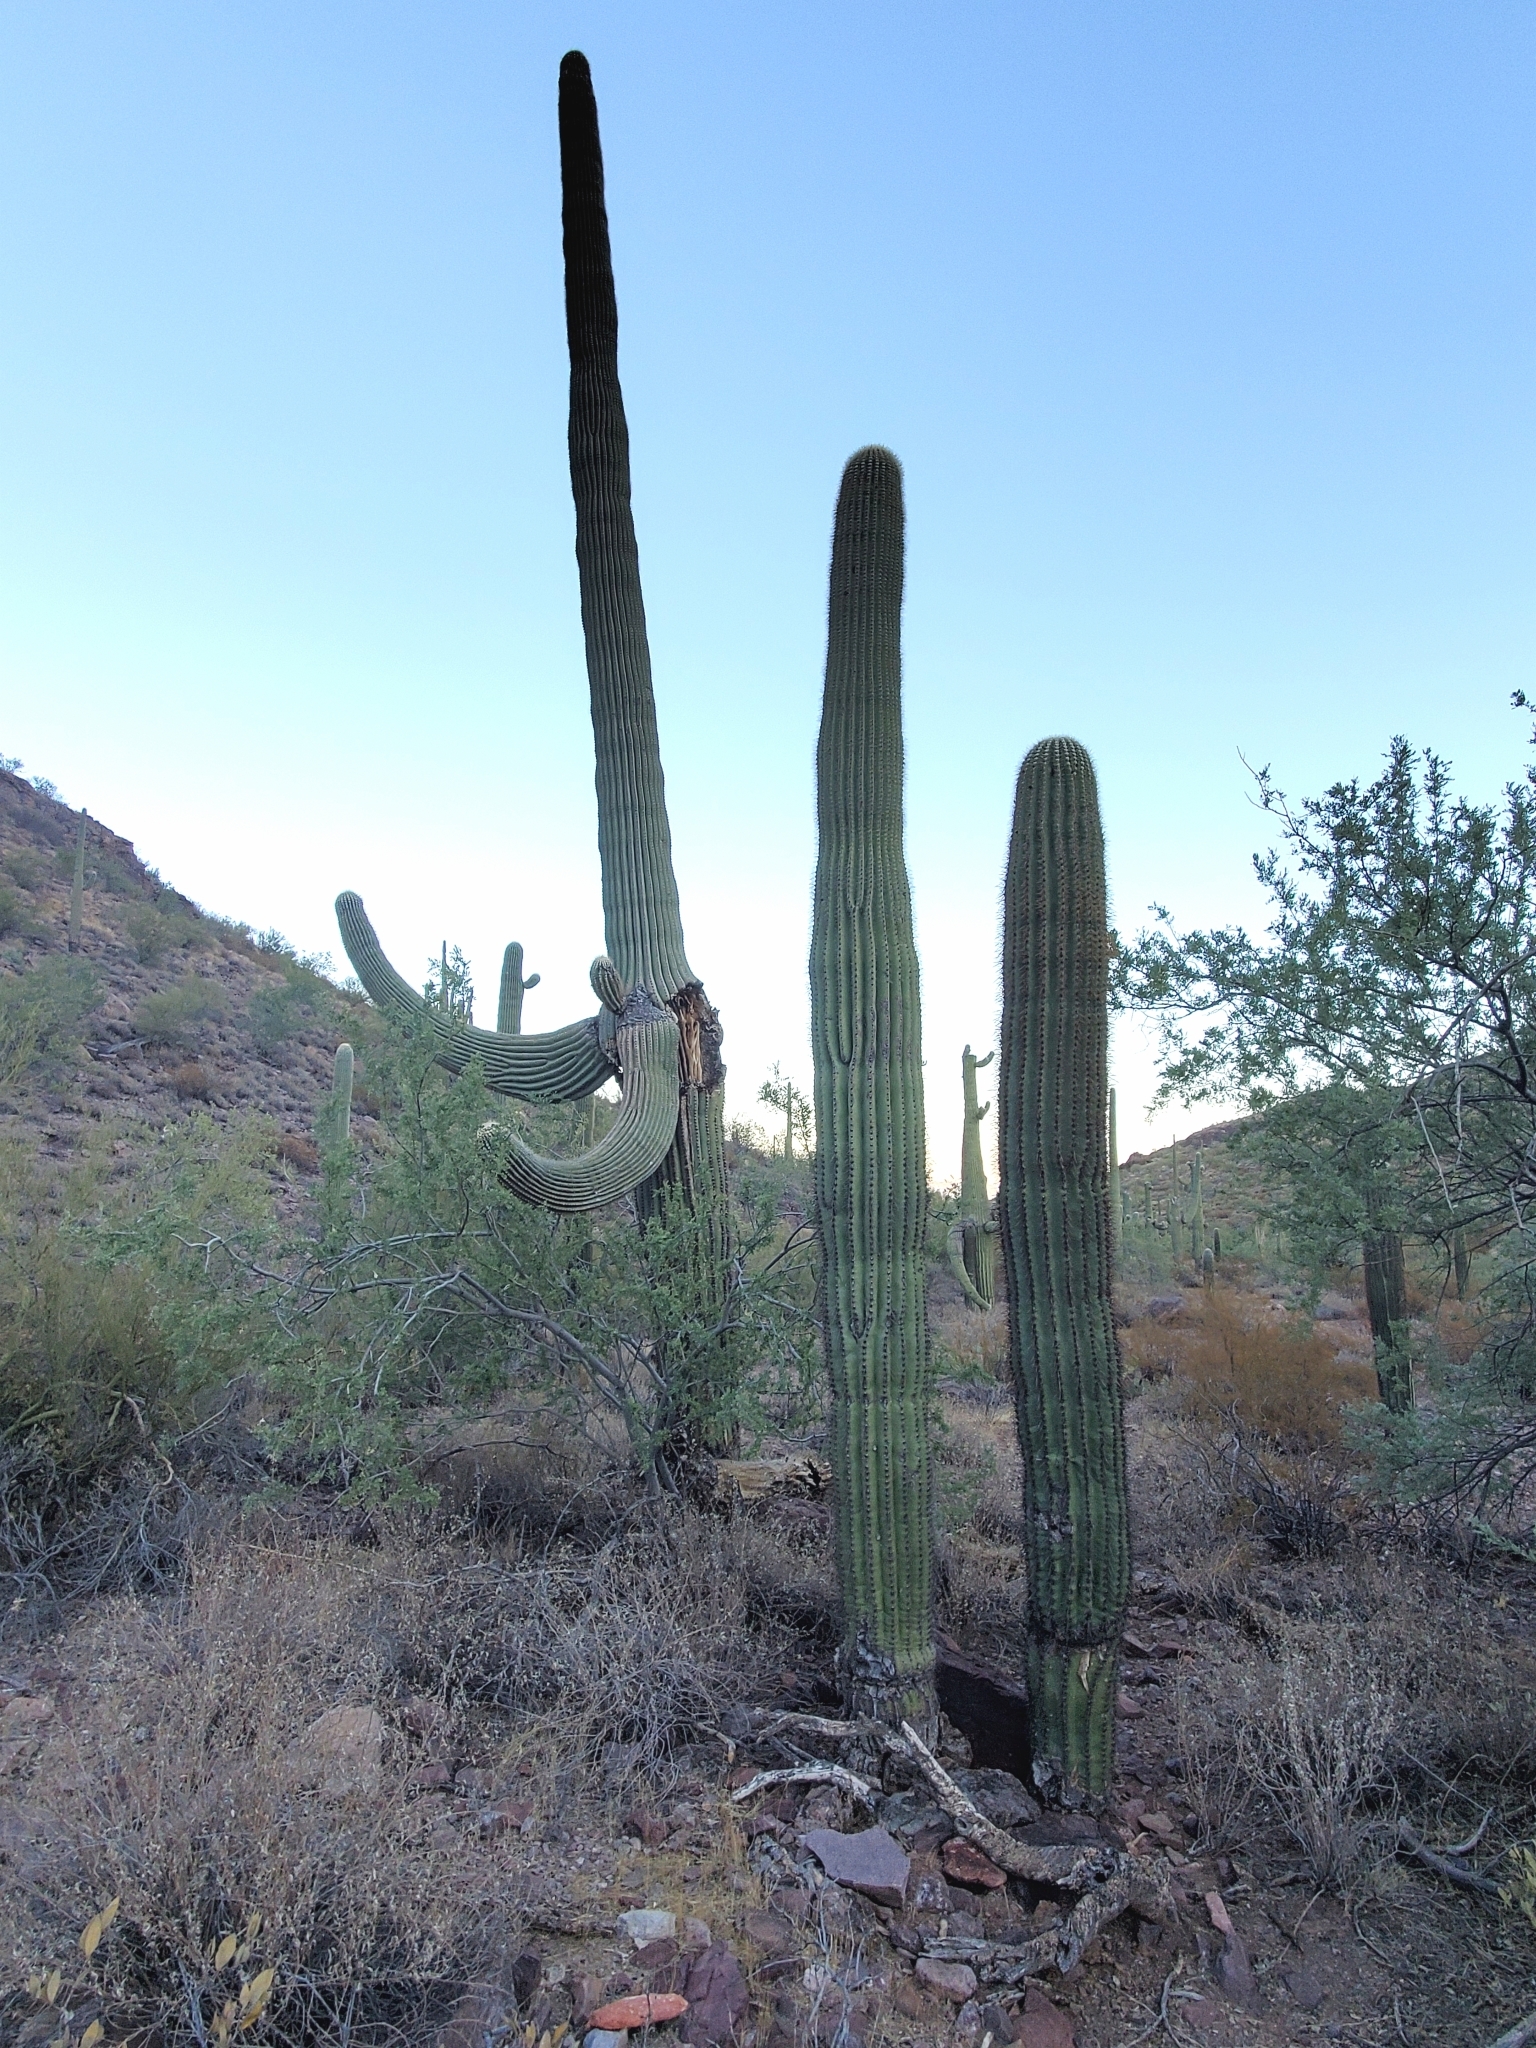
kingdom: Plantae
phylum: Tracheophyta
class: Magnoliopsida
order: Caryophyllales
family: Cactaceae
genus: Carnegiea
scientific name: Carnegiea gigantea
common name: Saguaro
